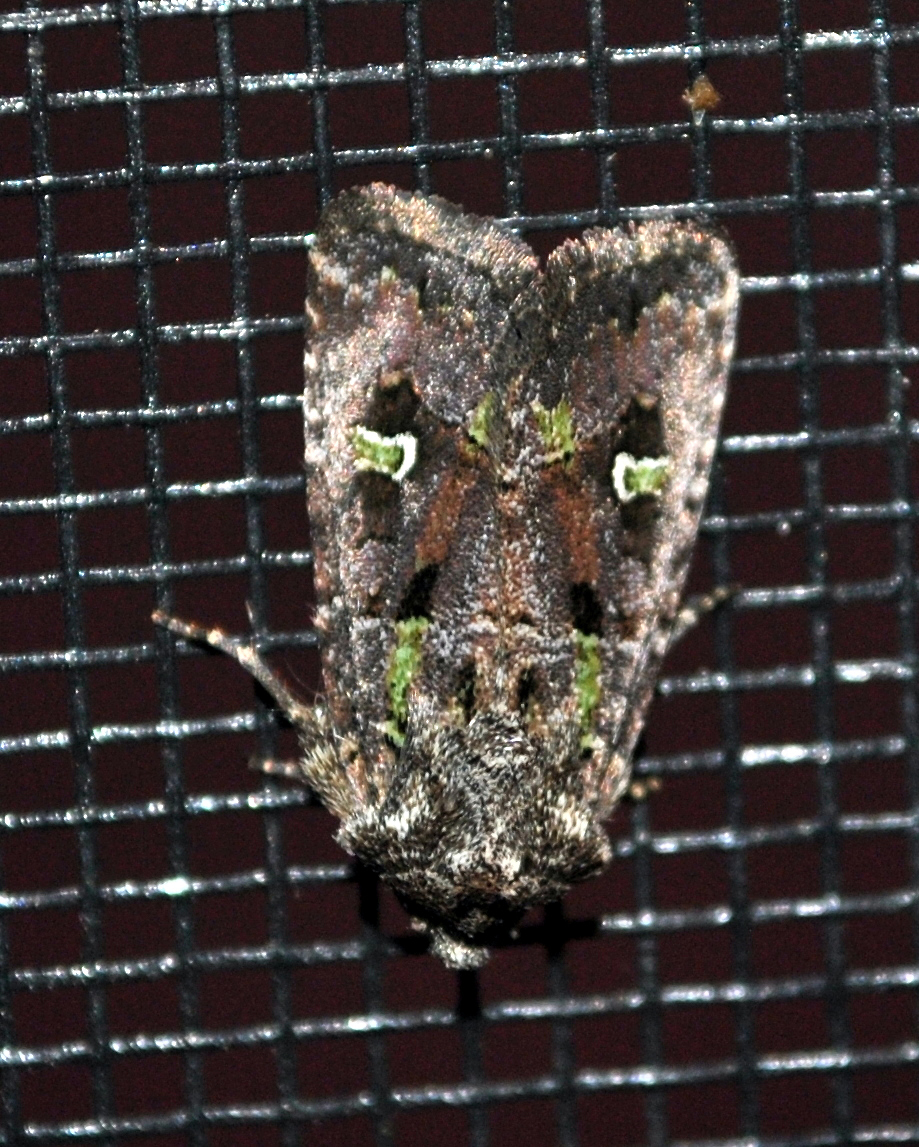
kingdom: Animalia
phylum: Arthropoda
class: Insecta
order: Lepidoptera
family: Noctuidae
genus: Lacinipolia
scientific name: Lacinipolia renigera
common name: Kidney-spotted minor
